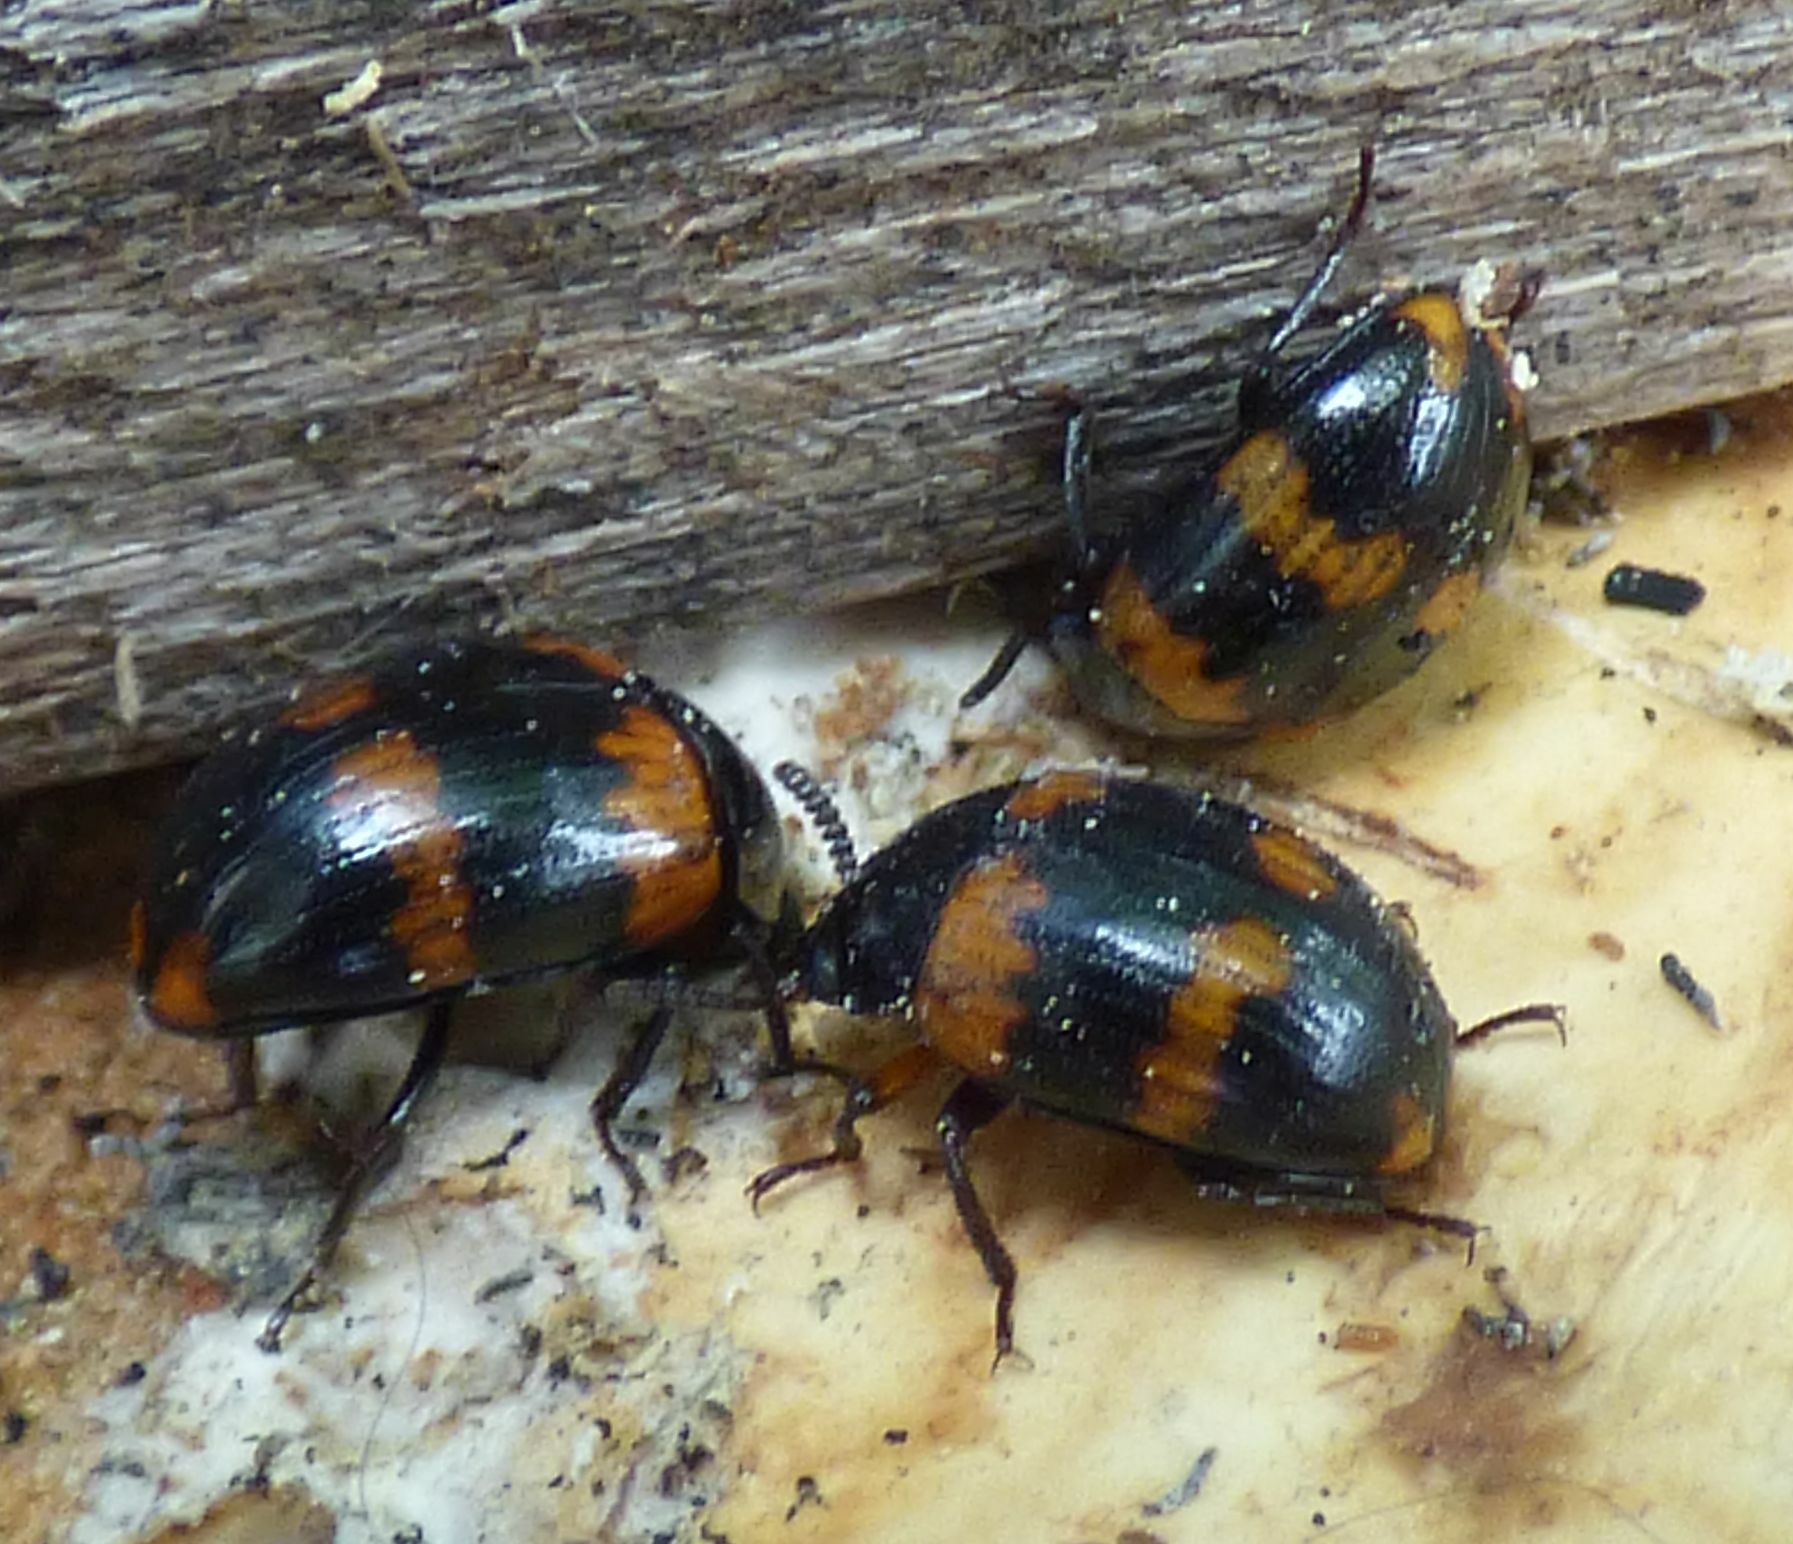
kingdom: Animalia
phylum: Arthropoda
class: Insecta
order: Coleoptera
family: Tenebrionidae
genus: Diaperis
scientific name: Diaperis boleti
